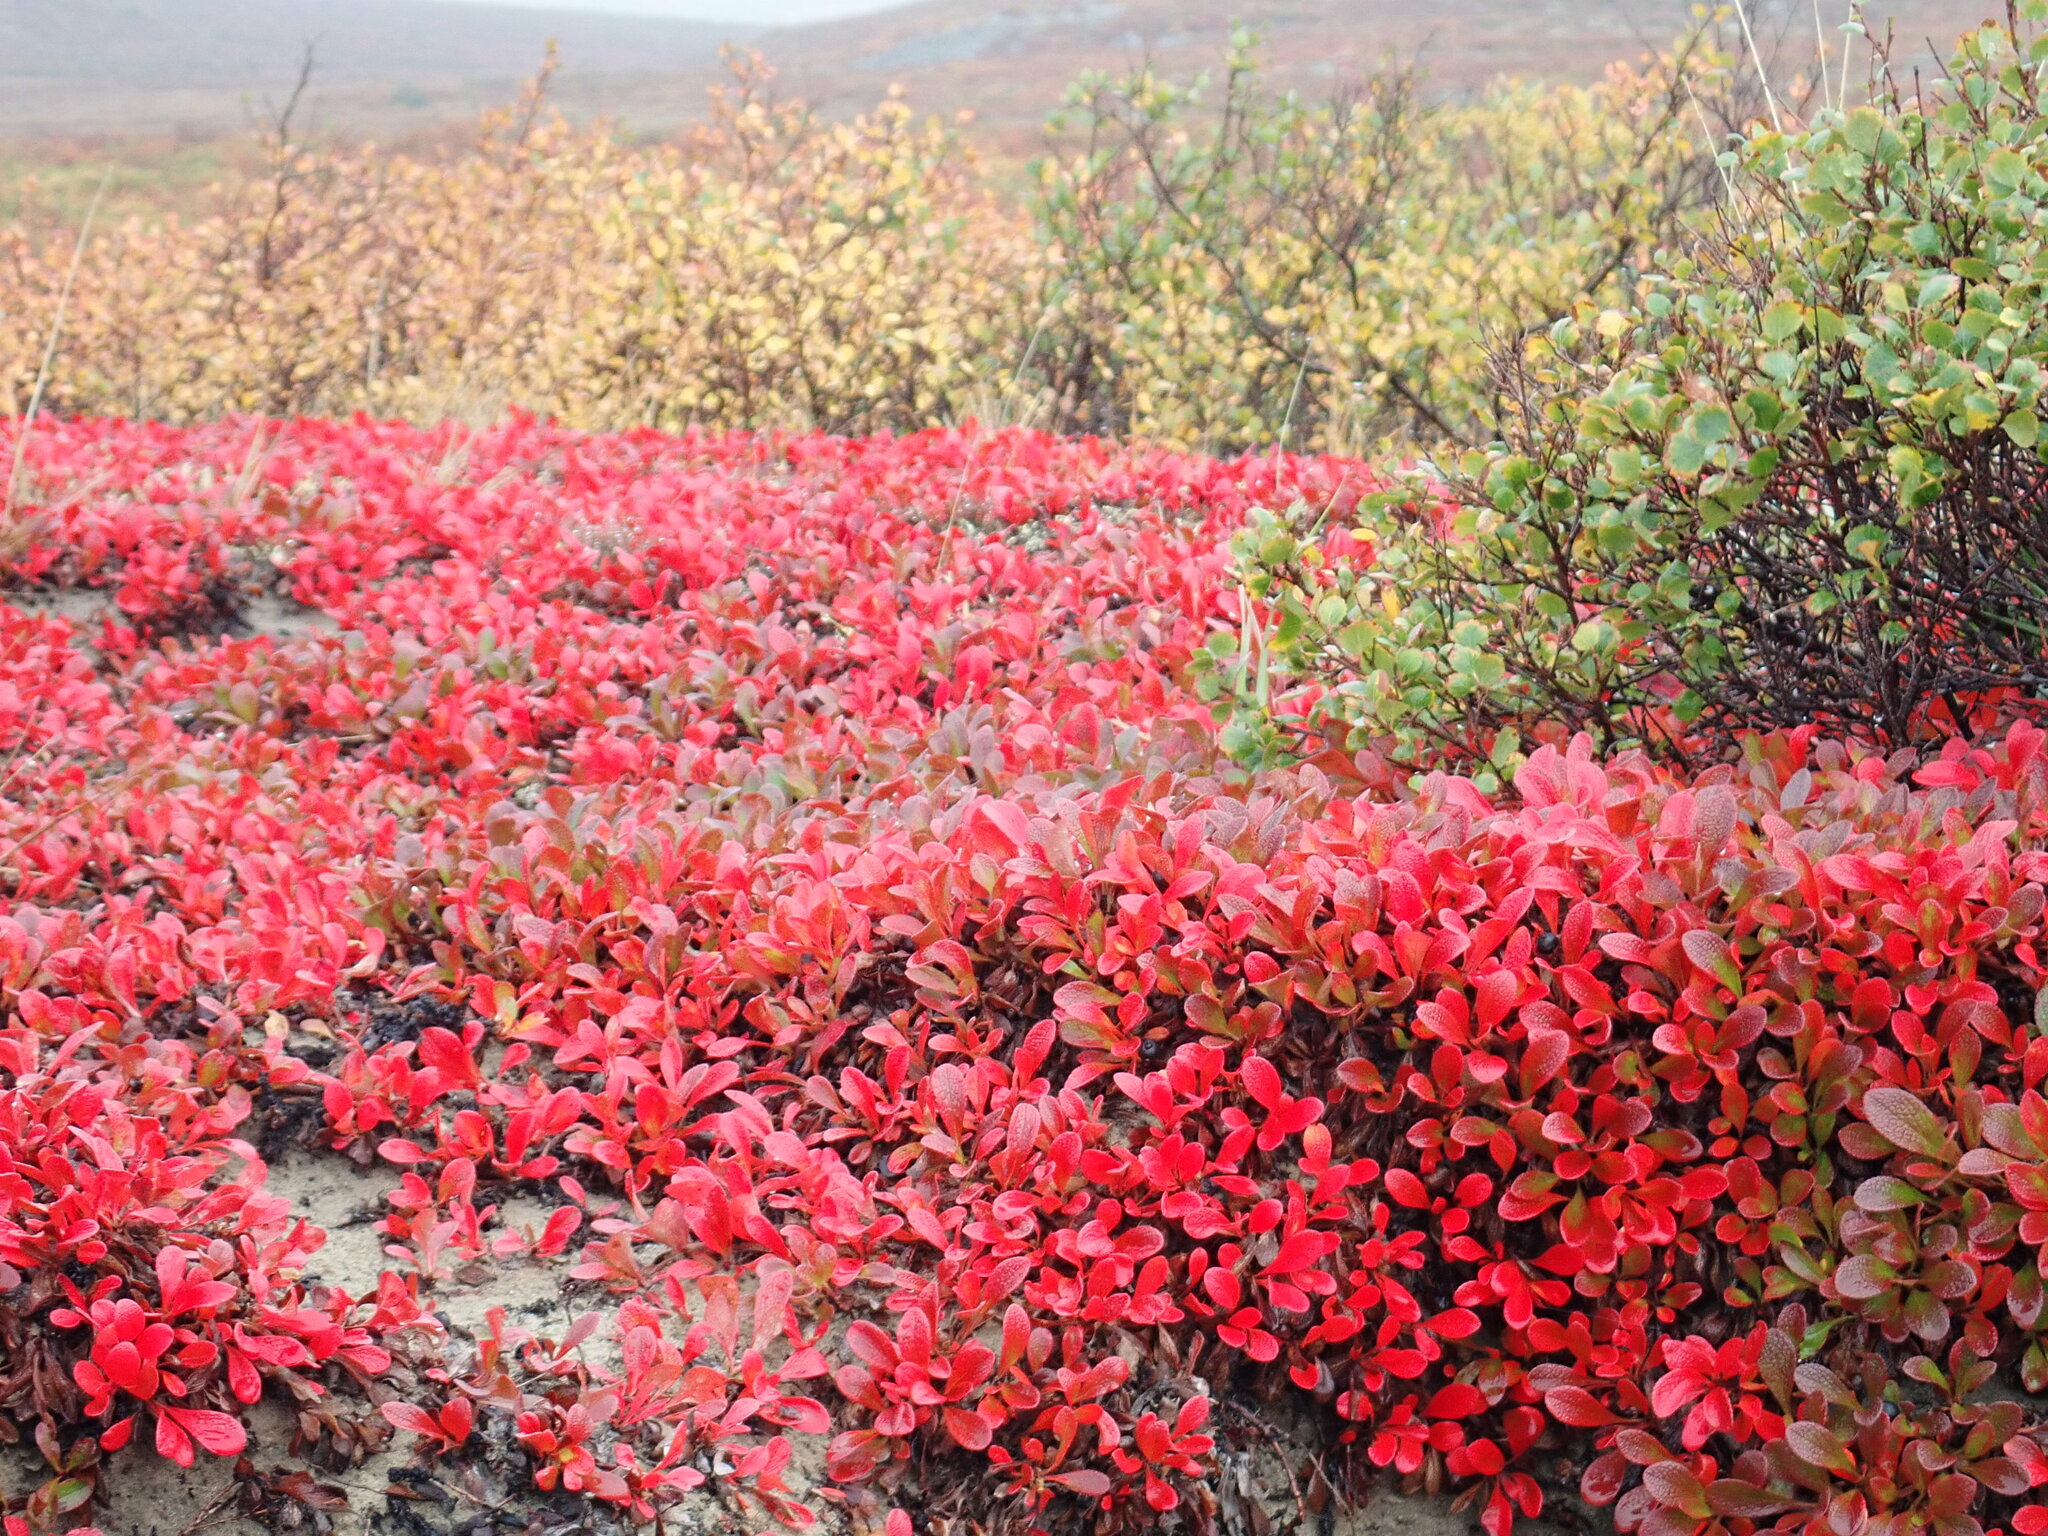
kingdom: Plantae
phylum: Tracheophyta
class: Magnoliopsida
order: Ericales
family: Ericaceae
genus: Arctostaphylos
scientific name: Arctostaphylos alpinus
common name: Alpine bearberry
